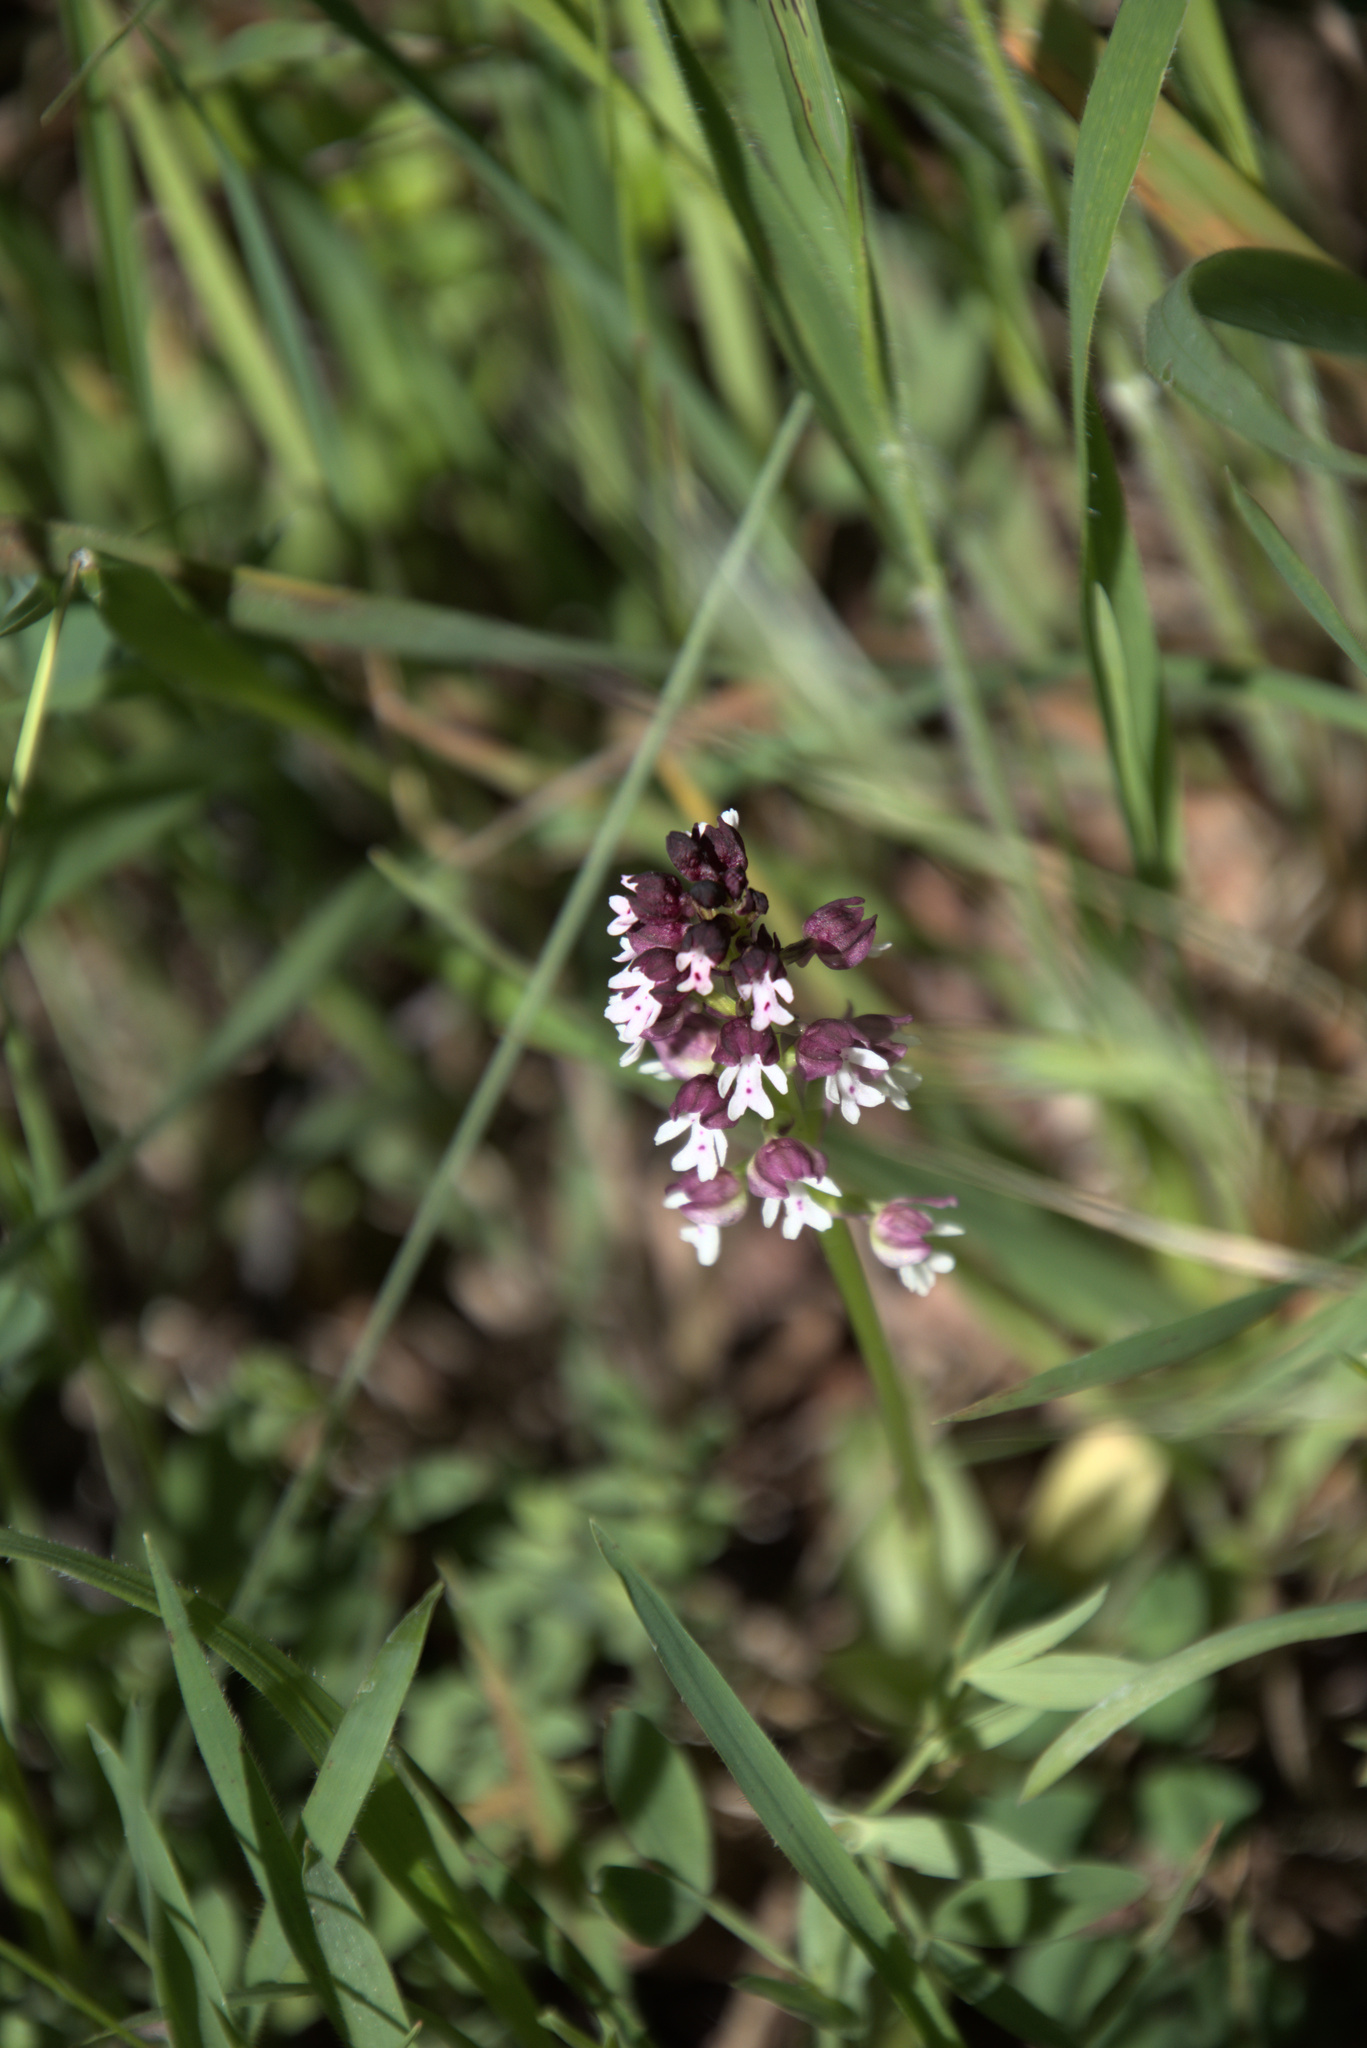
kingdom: Plantae
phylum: Tracheophyta
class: Liliopsida
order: Asparagales
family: Orchidaceae
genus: Neotinea
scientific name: Neotinea ustulata
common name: Burnt orchid
